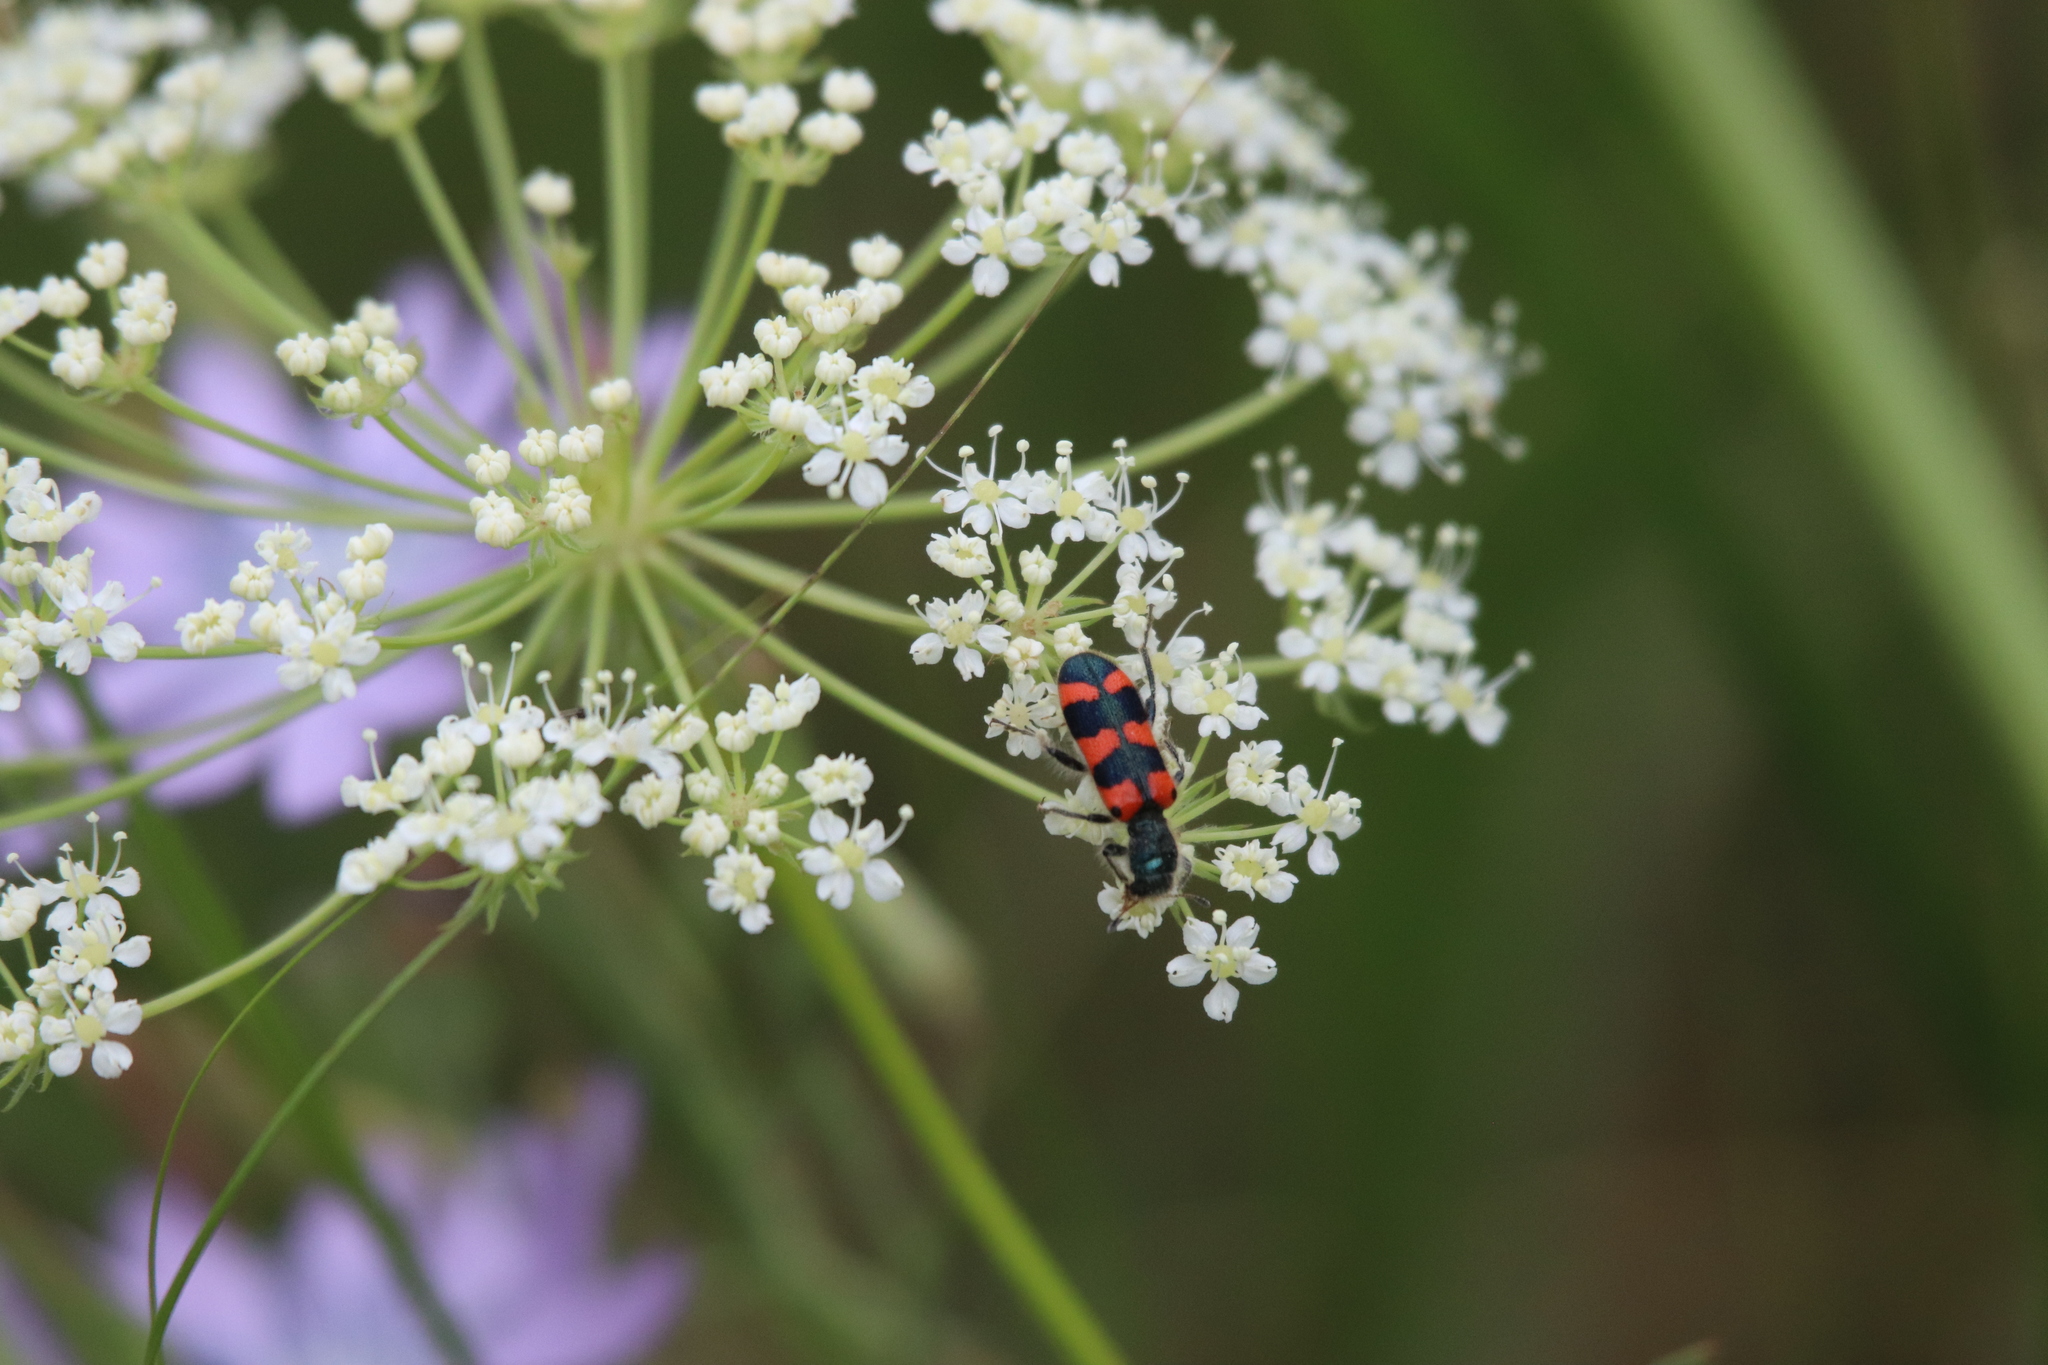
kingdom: Animalia
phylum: Arthropoda
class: Insecta
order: Coleoptera
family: Cleridae
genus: Trichodes
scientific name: Trichodes leucopsideus
